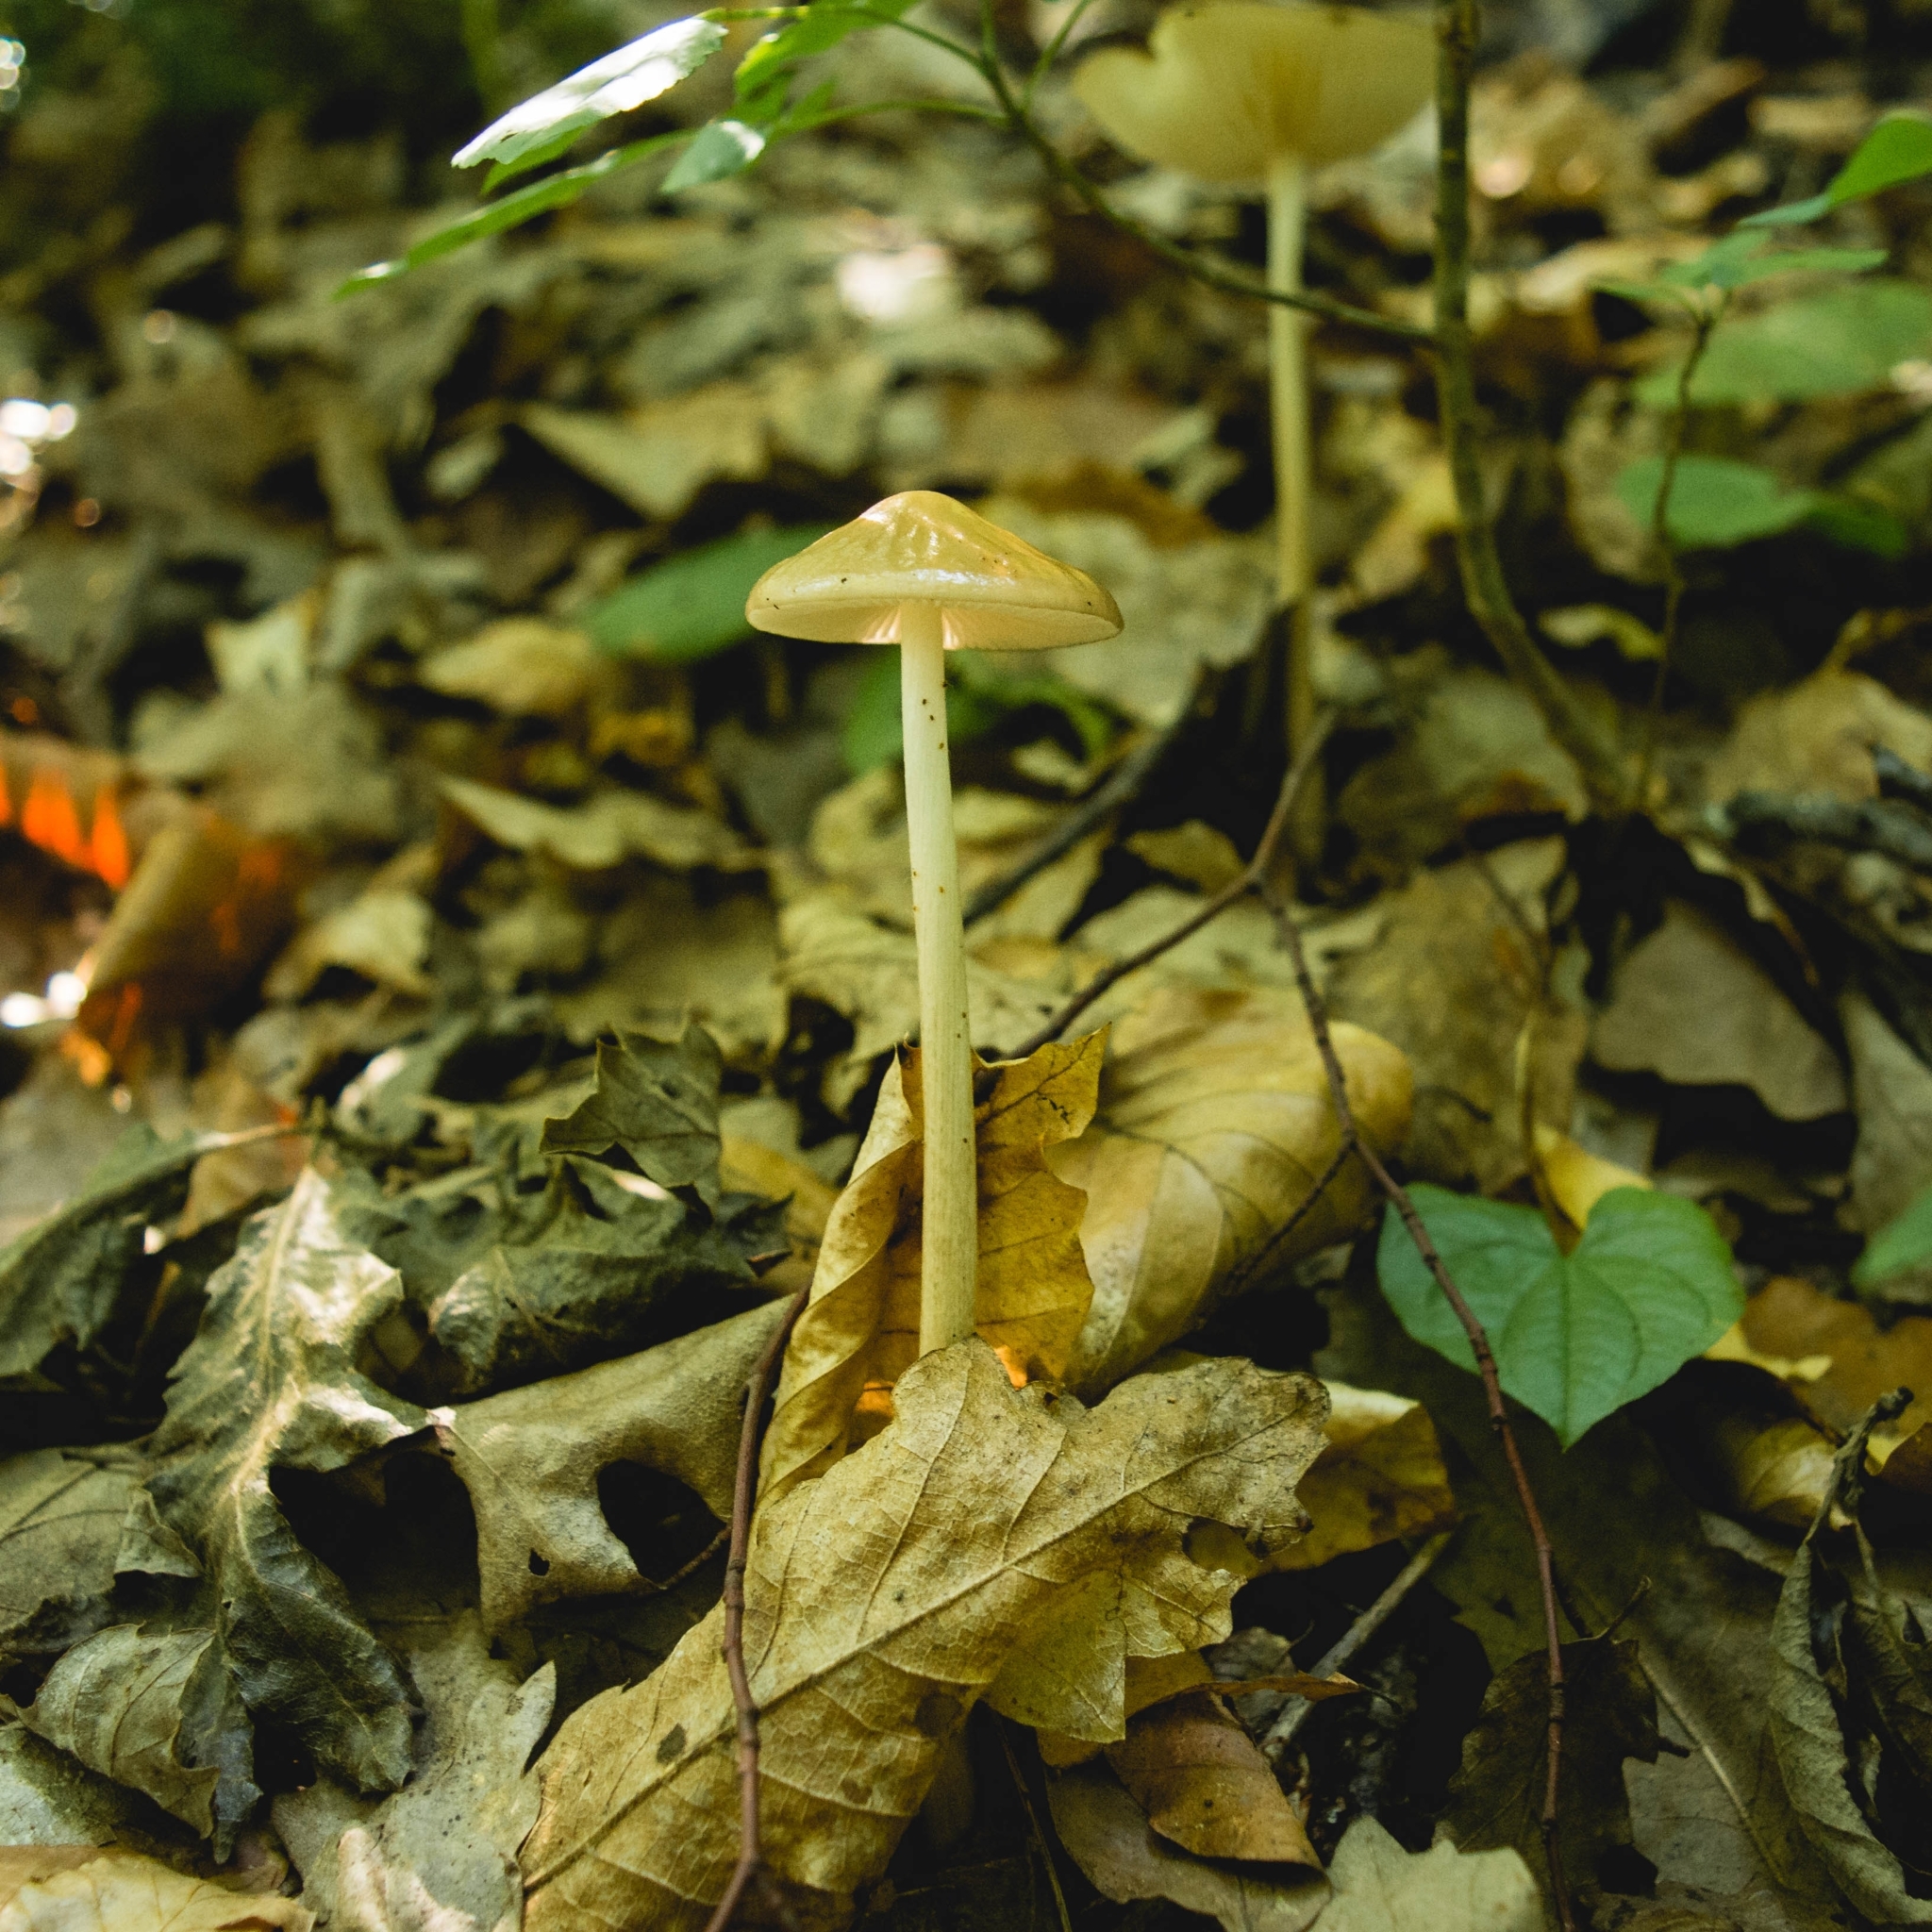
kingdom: Fungi
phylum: Basidiomycota
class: Agaricomycetes
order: Agaricales
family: Physalacriaceae
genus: Hymenopellis
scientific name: Hymenopellis radicata
